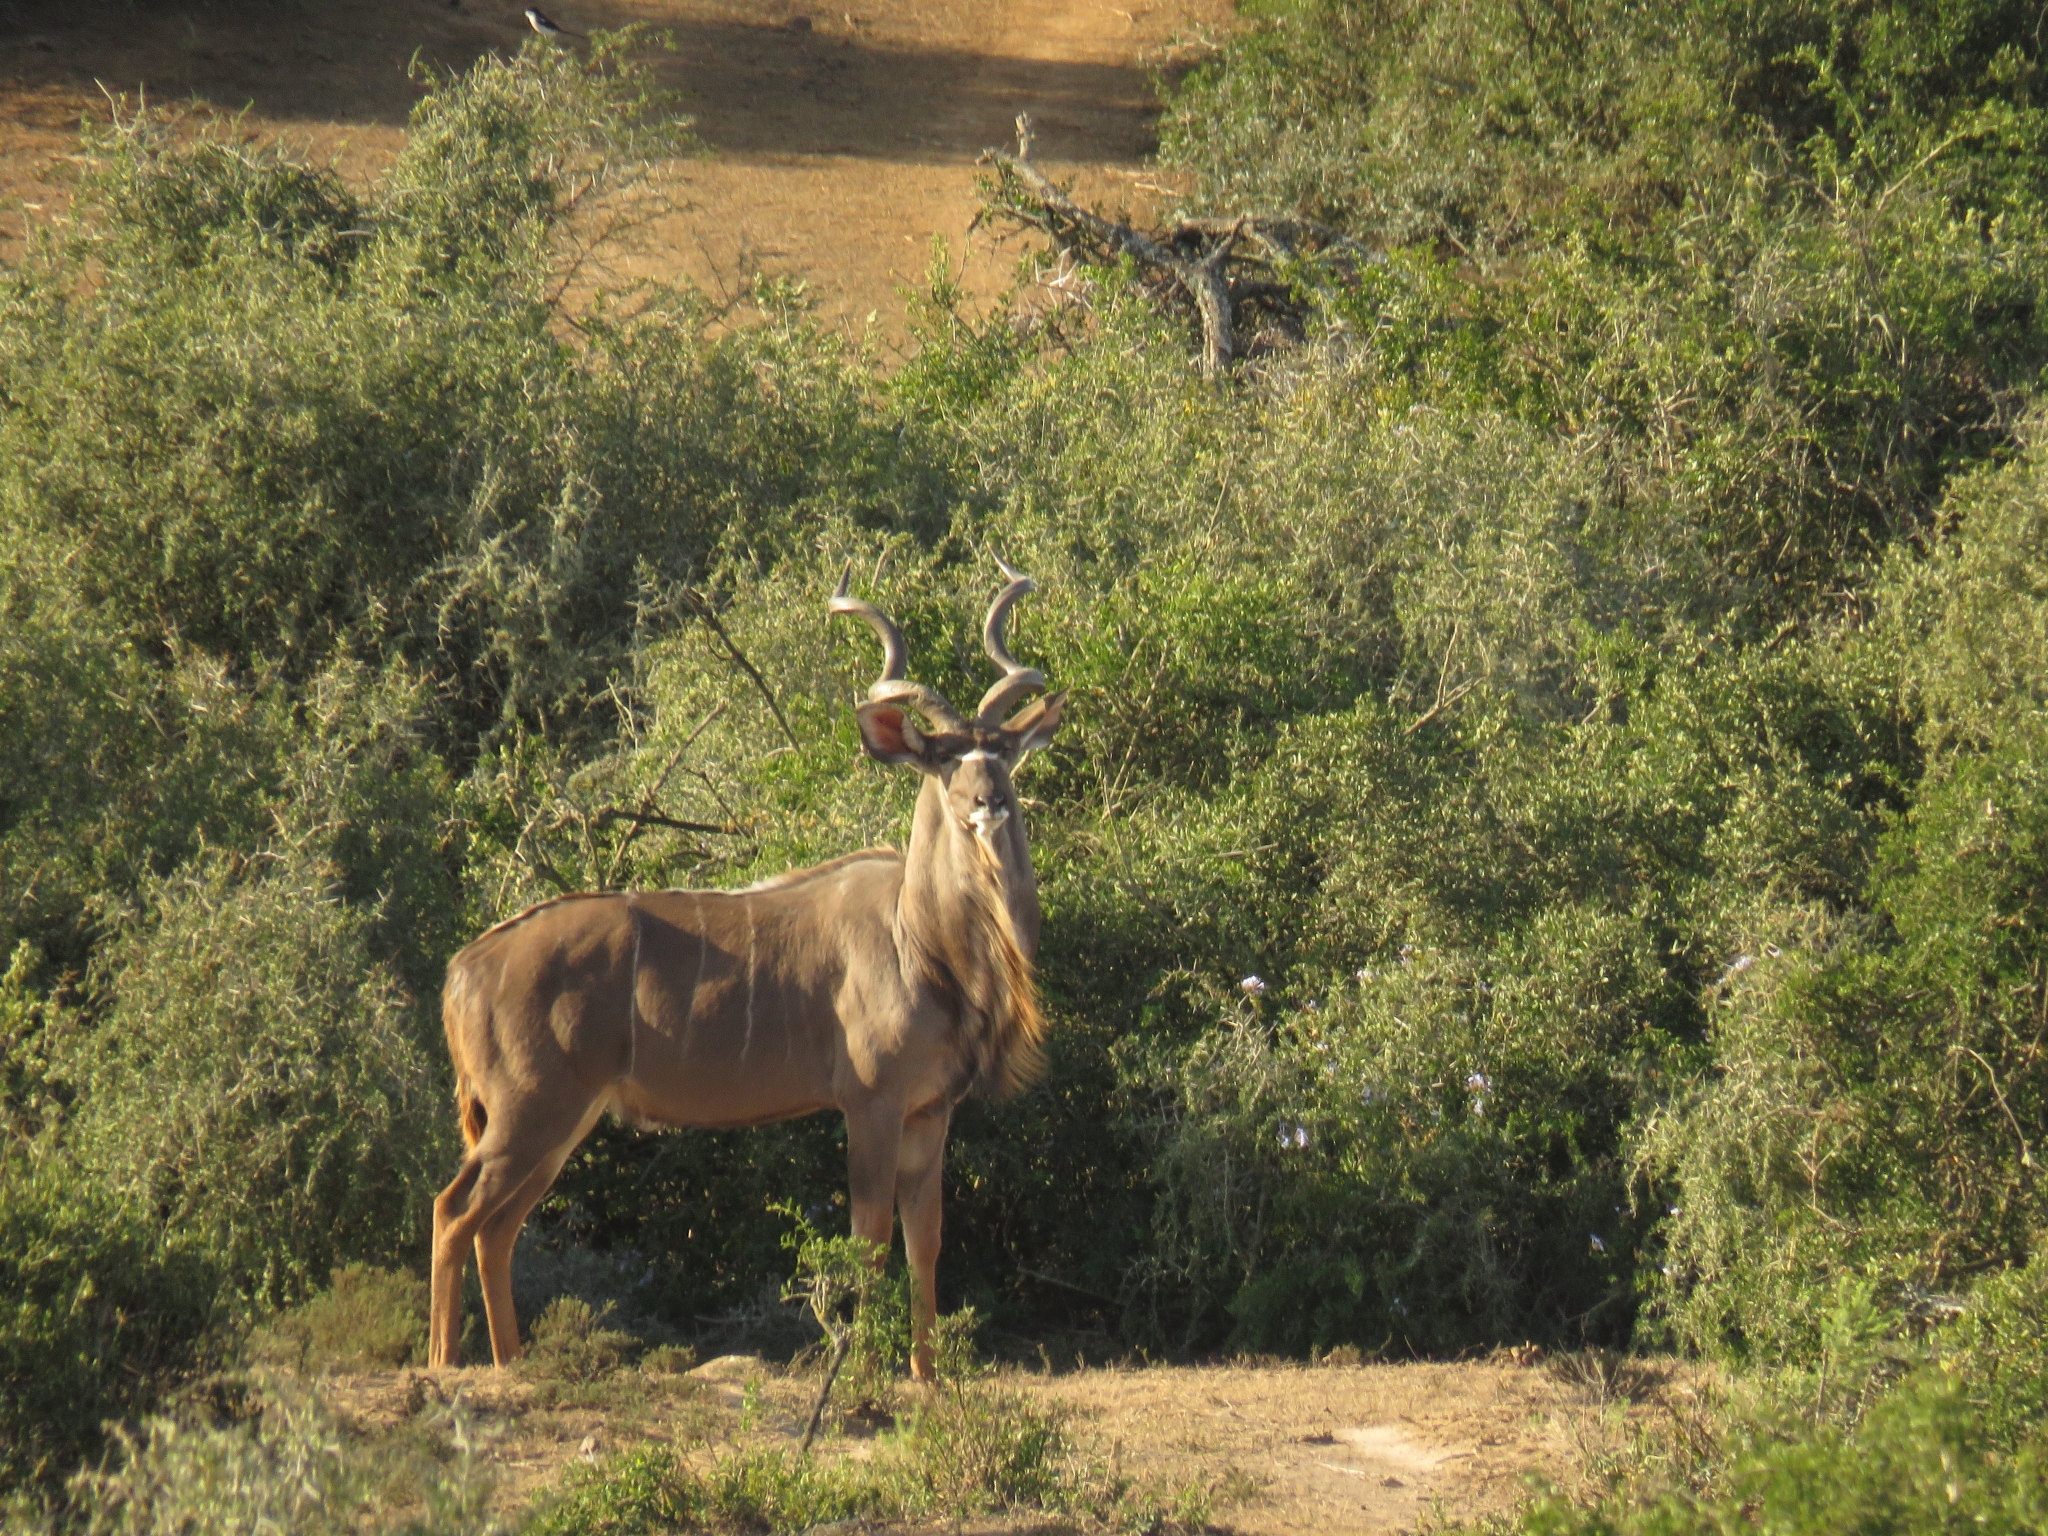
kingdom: Animalia
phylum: Chordata
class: Mammalia
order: Artiodactyla
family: Bovidae
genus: Tragelaphus
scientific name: Tragelaphus strepsiceros
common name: Greater kudu
